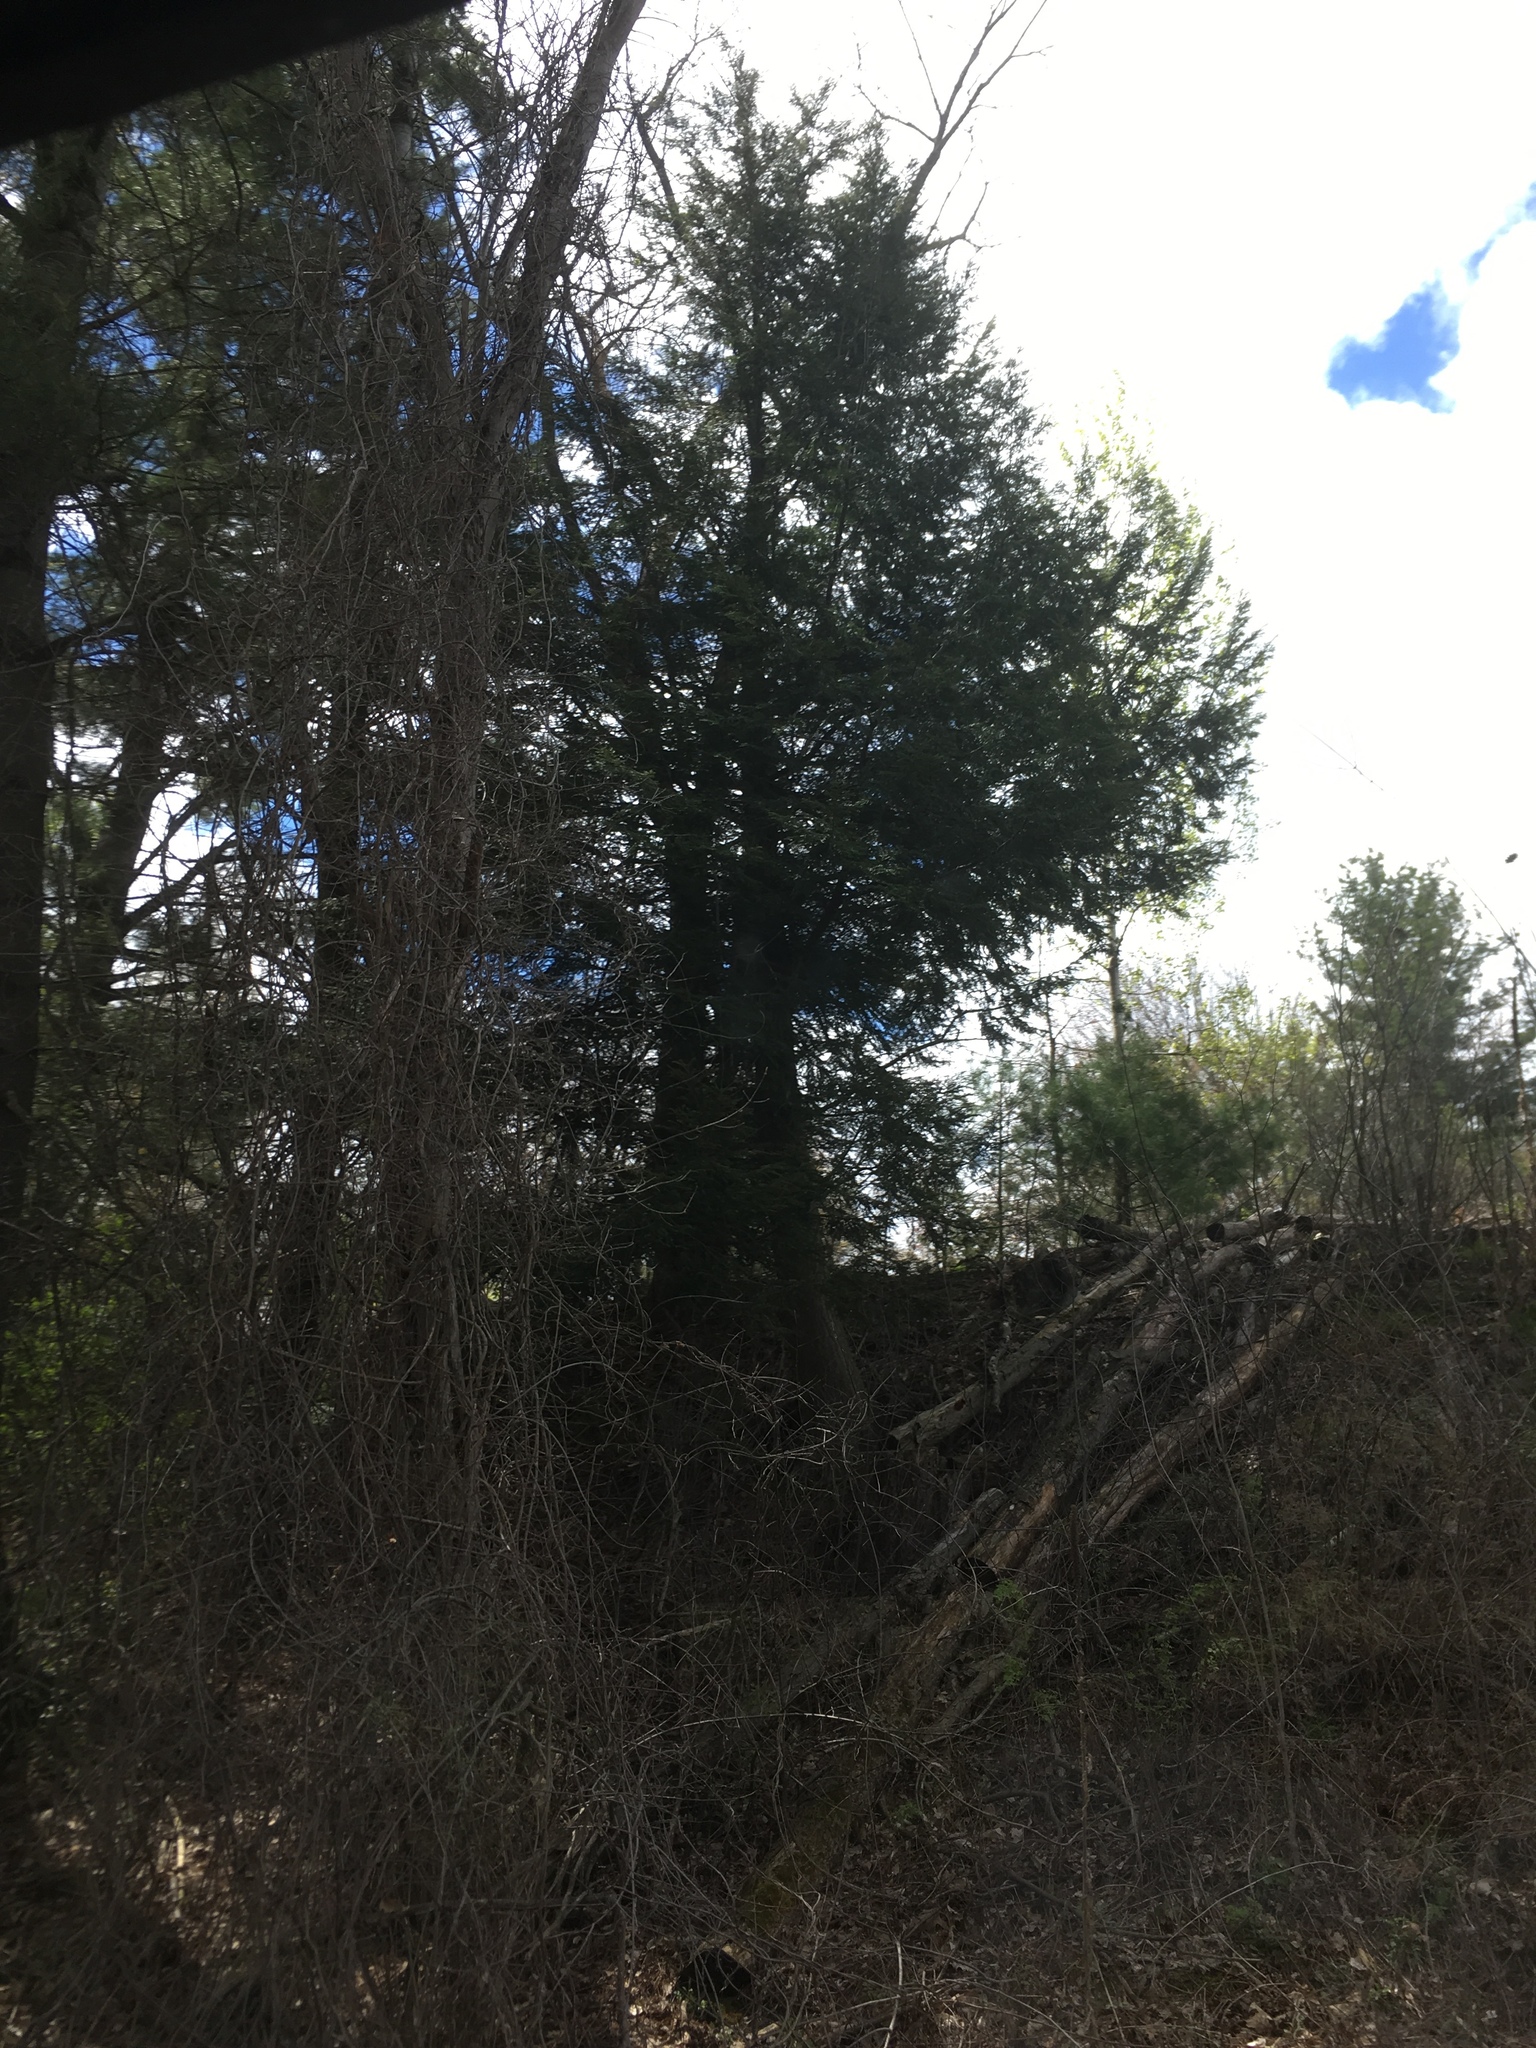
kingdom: Plantae
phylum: Tracheophyta
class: Pinopsida
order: Pinales
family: Pinaceae
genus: Tsuga
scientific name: Tsuga canadensis
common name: Eastern hemlock
